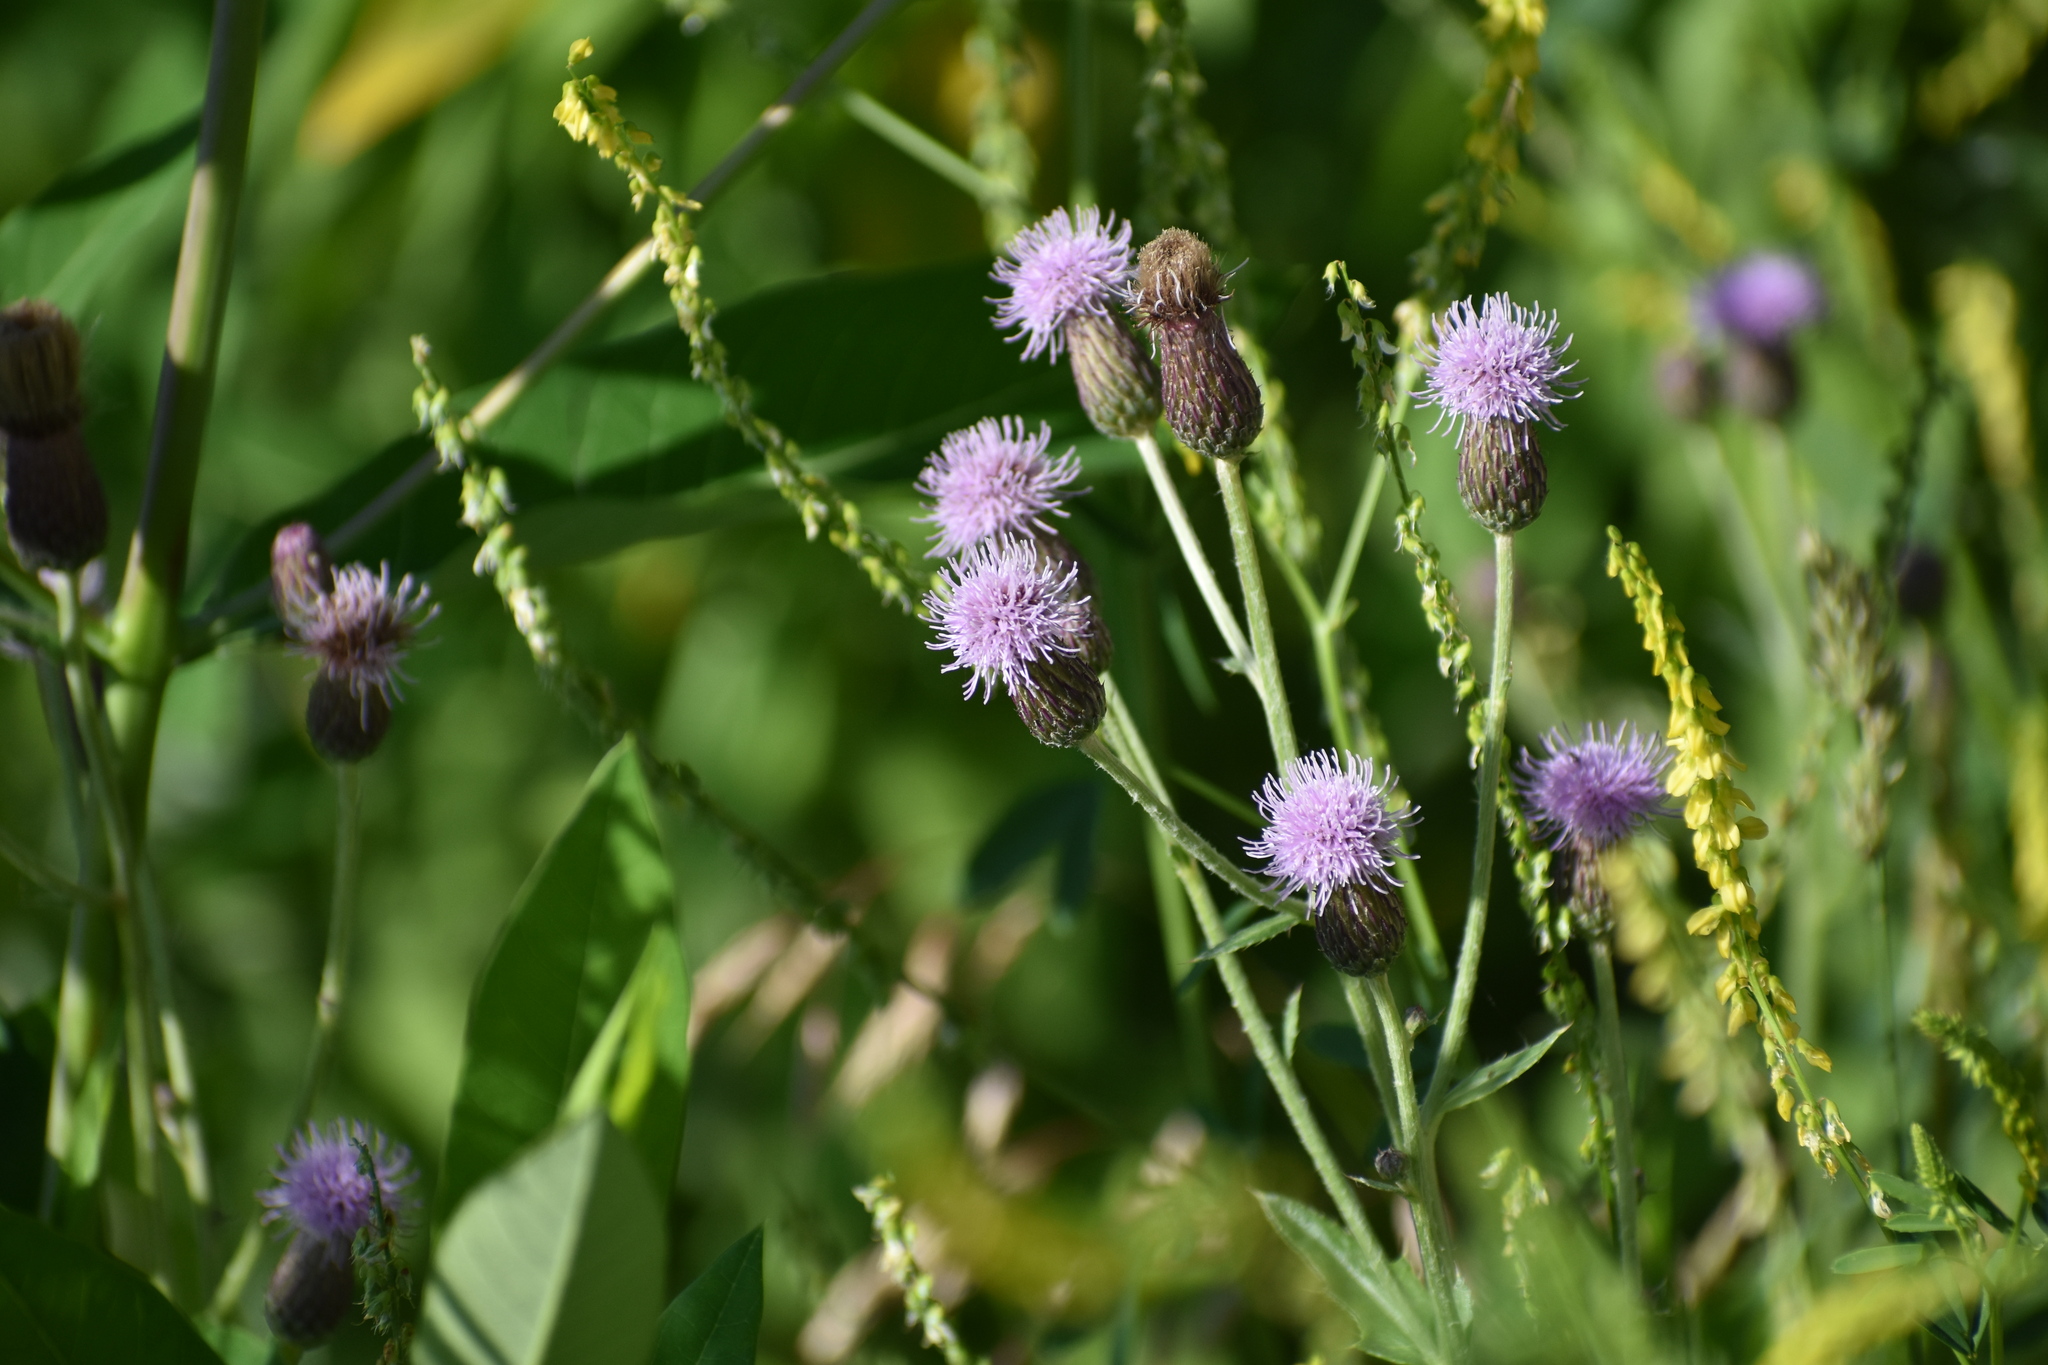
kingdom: Plantae
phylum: Tracheophyta
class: Magnoliopsida
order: Asterales
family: Asteraceae
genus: Cirsium
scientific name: Cirsium arvense
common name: Creeping thistle
